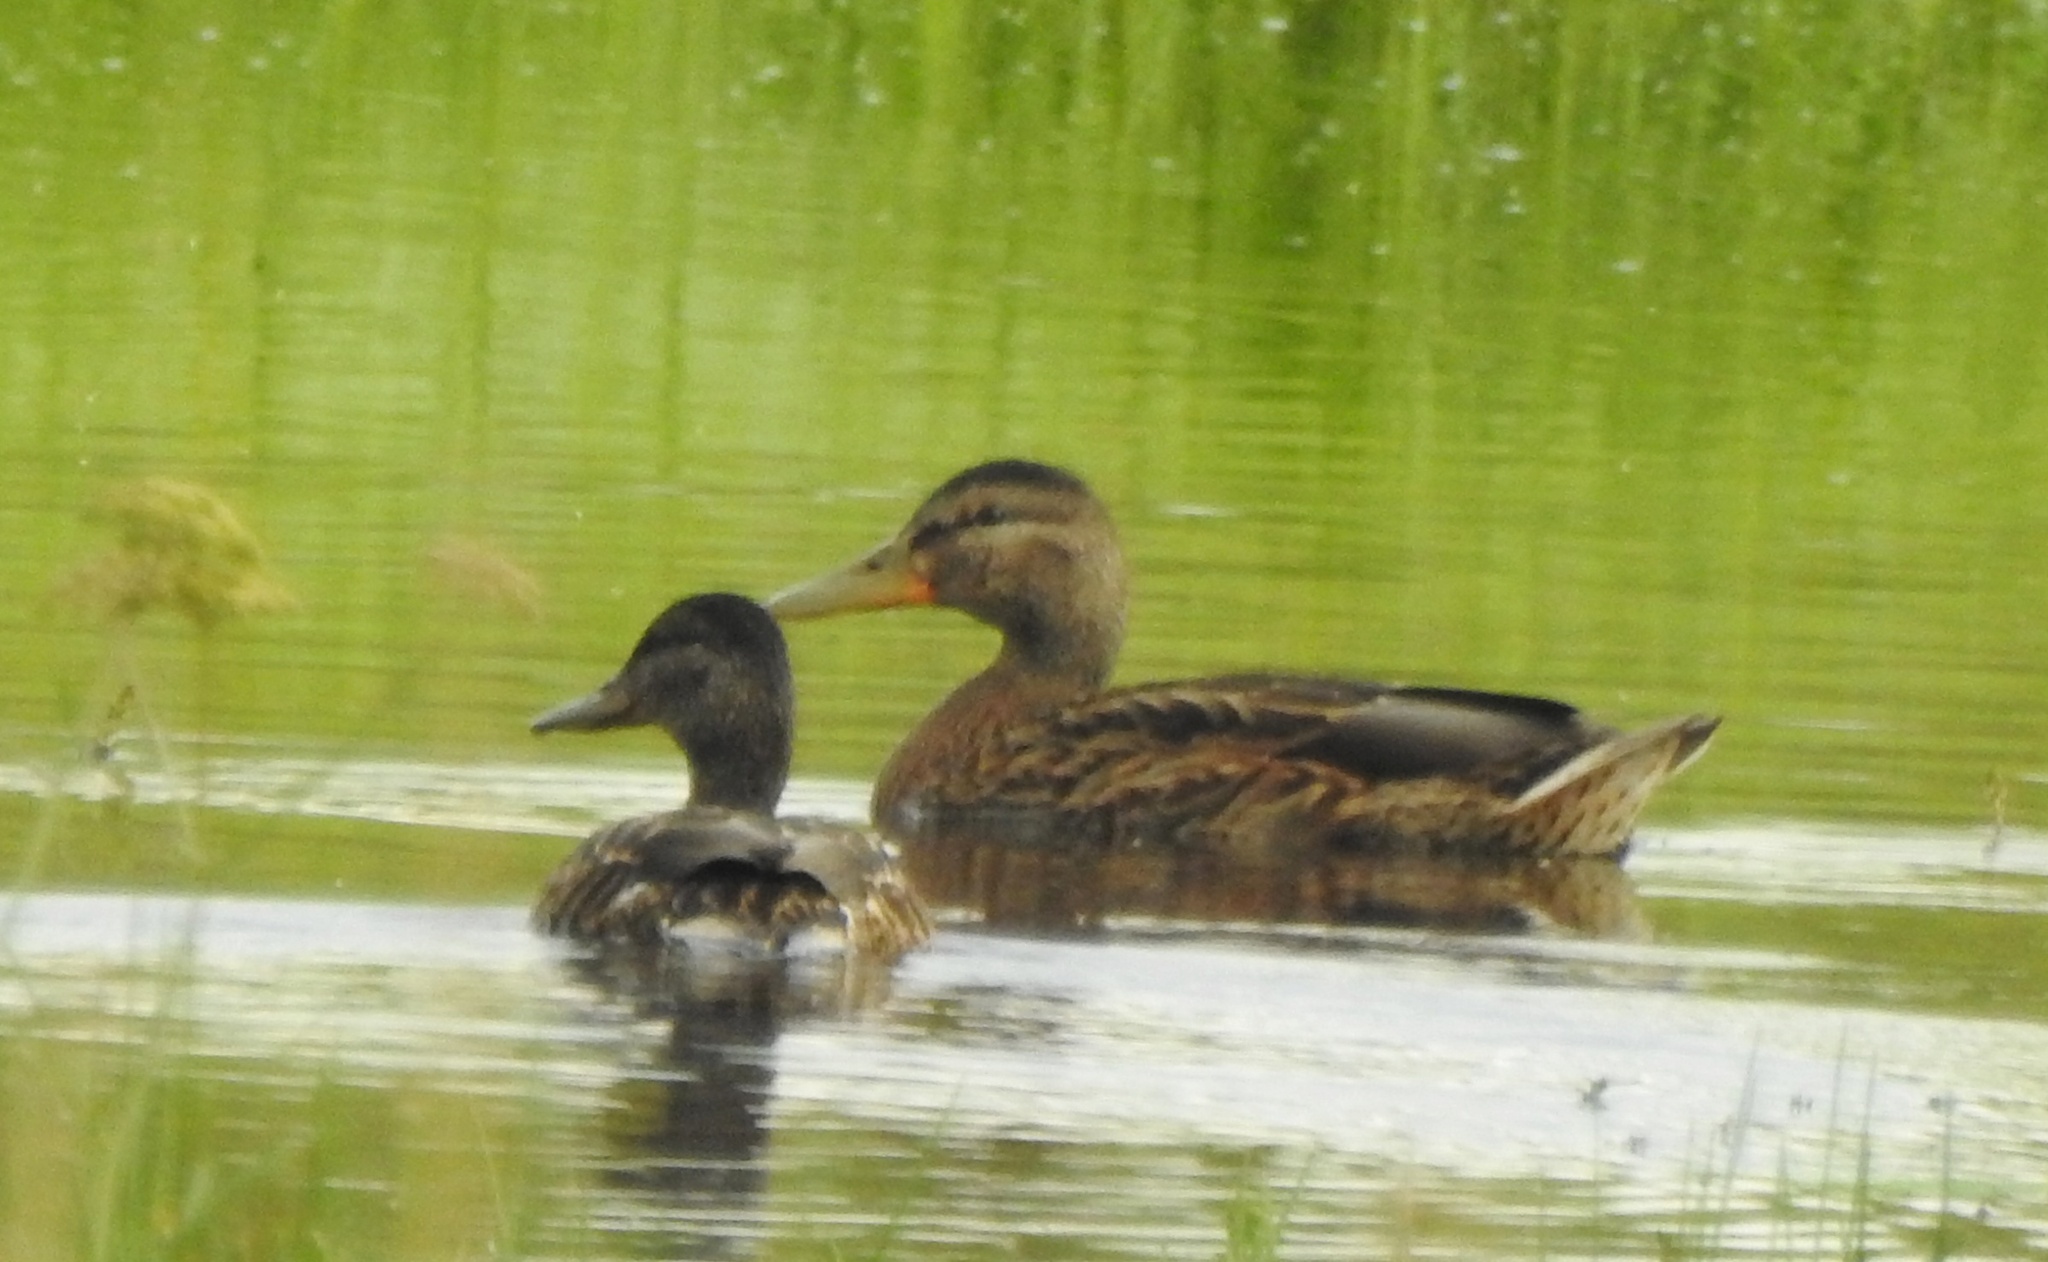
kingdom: Animalia
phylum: Chordata
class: Aves
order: Anseriformes
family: Anatidae
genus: Anas
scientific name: Anas platyrhynchos
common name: Mallard
